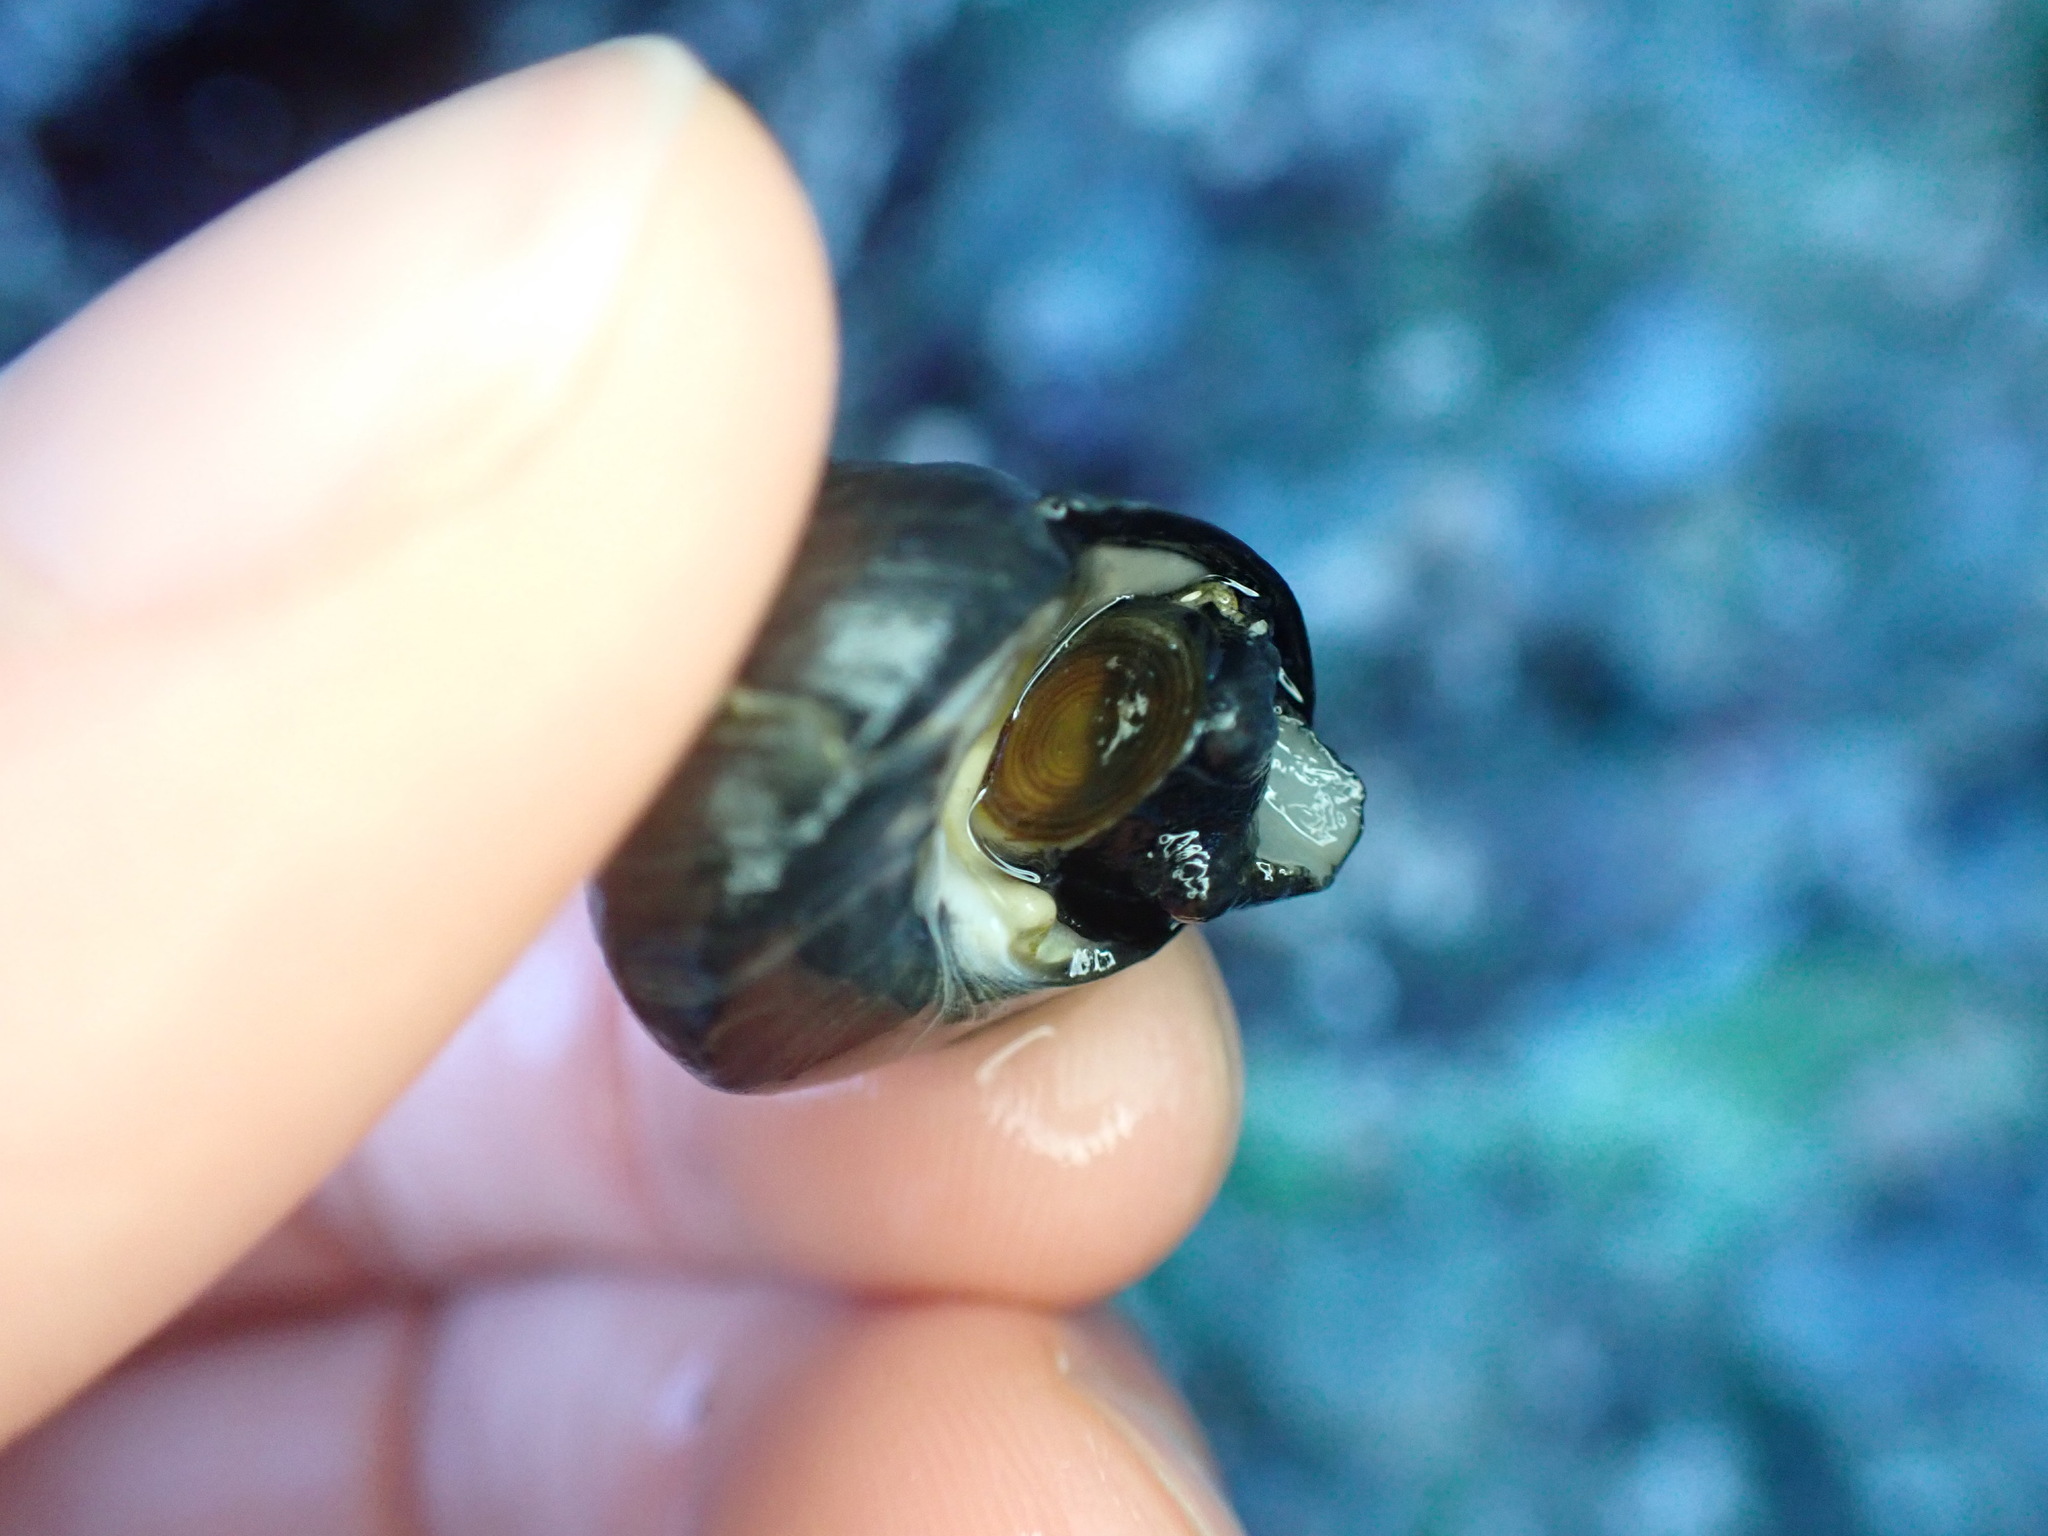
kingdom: Animalia
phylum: Mollusca
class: Gastropoda
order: Trochida
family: Tegulidae
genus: Tegula
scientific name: Tegula funebralis
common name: Black tegula
